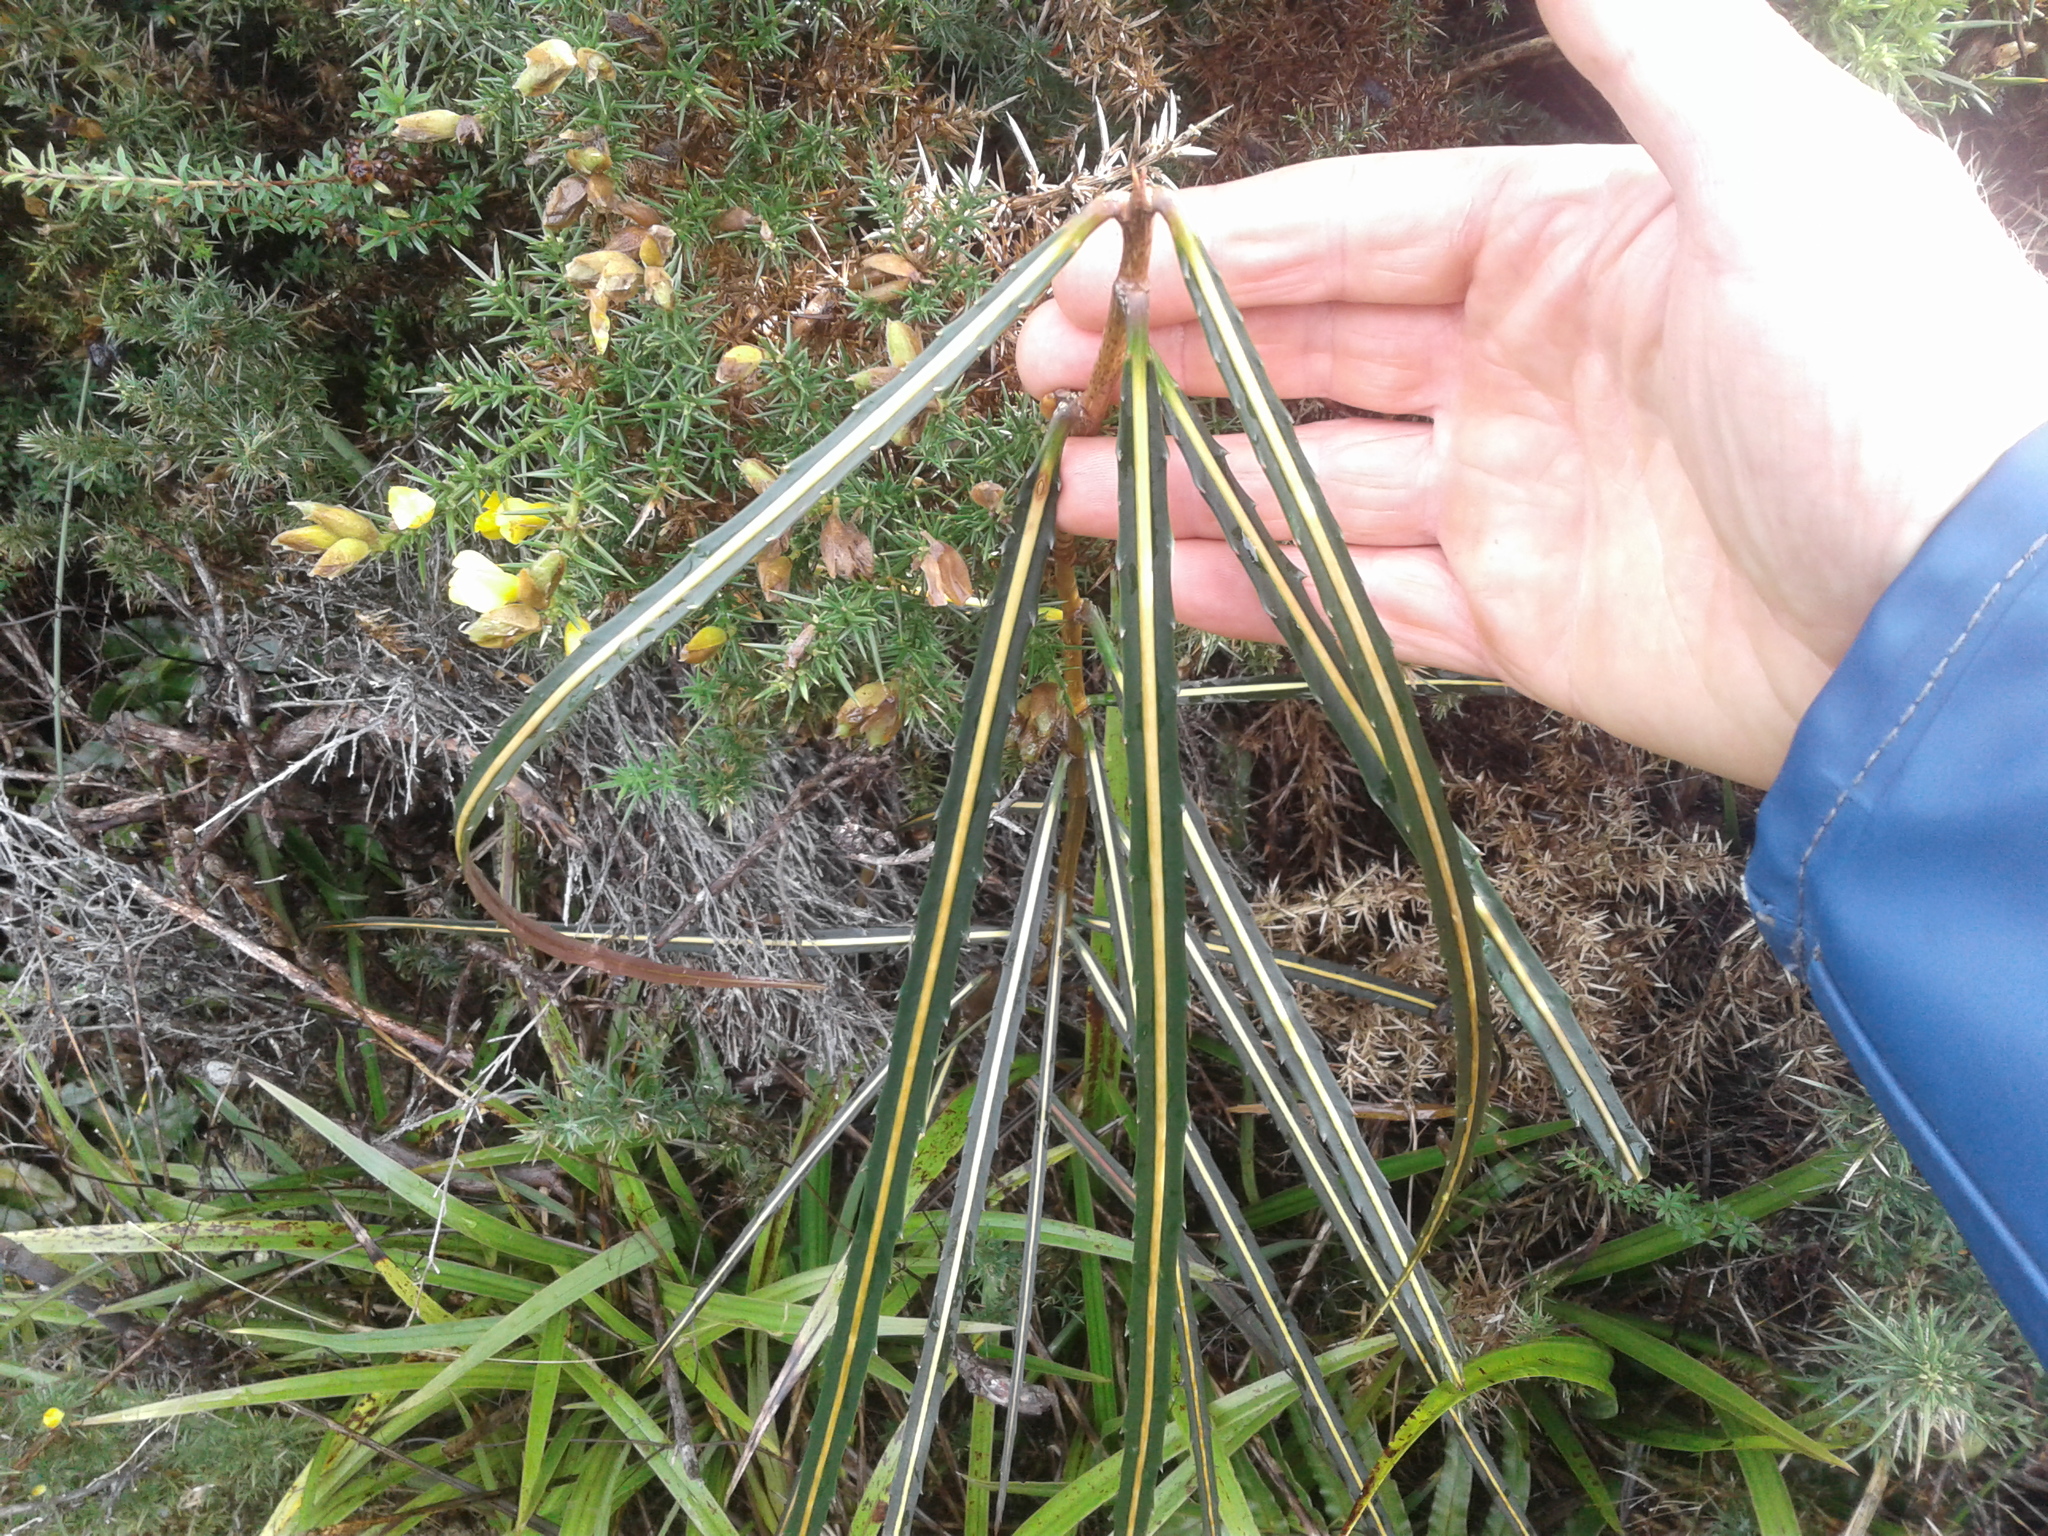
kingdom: Plantae
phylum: Tracheophyta
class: Magnoliopsida
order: Apiales
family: Araliaceae
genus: Pseudopanax
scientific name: Pseudopanax crassifolius
